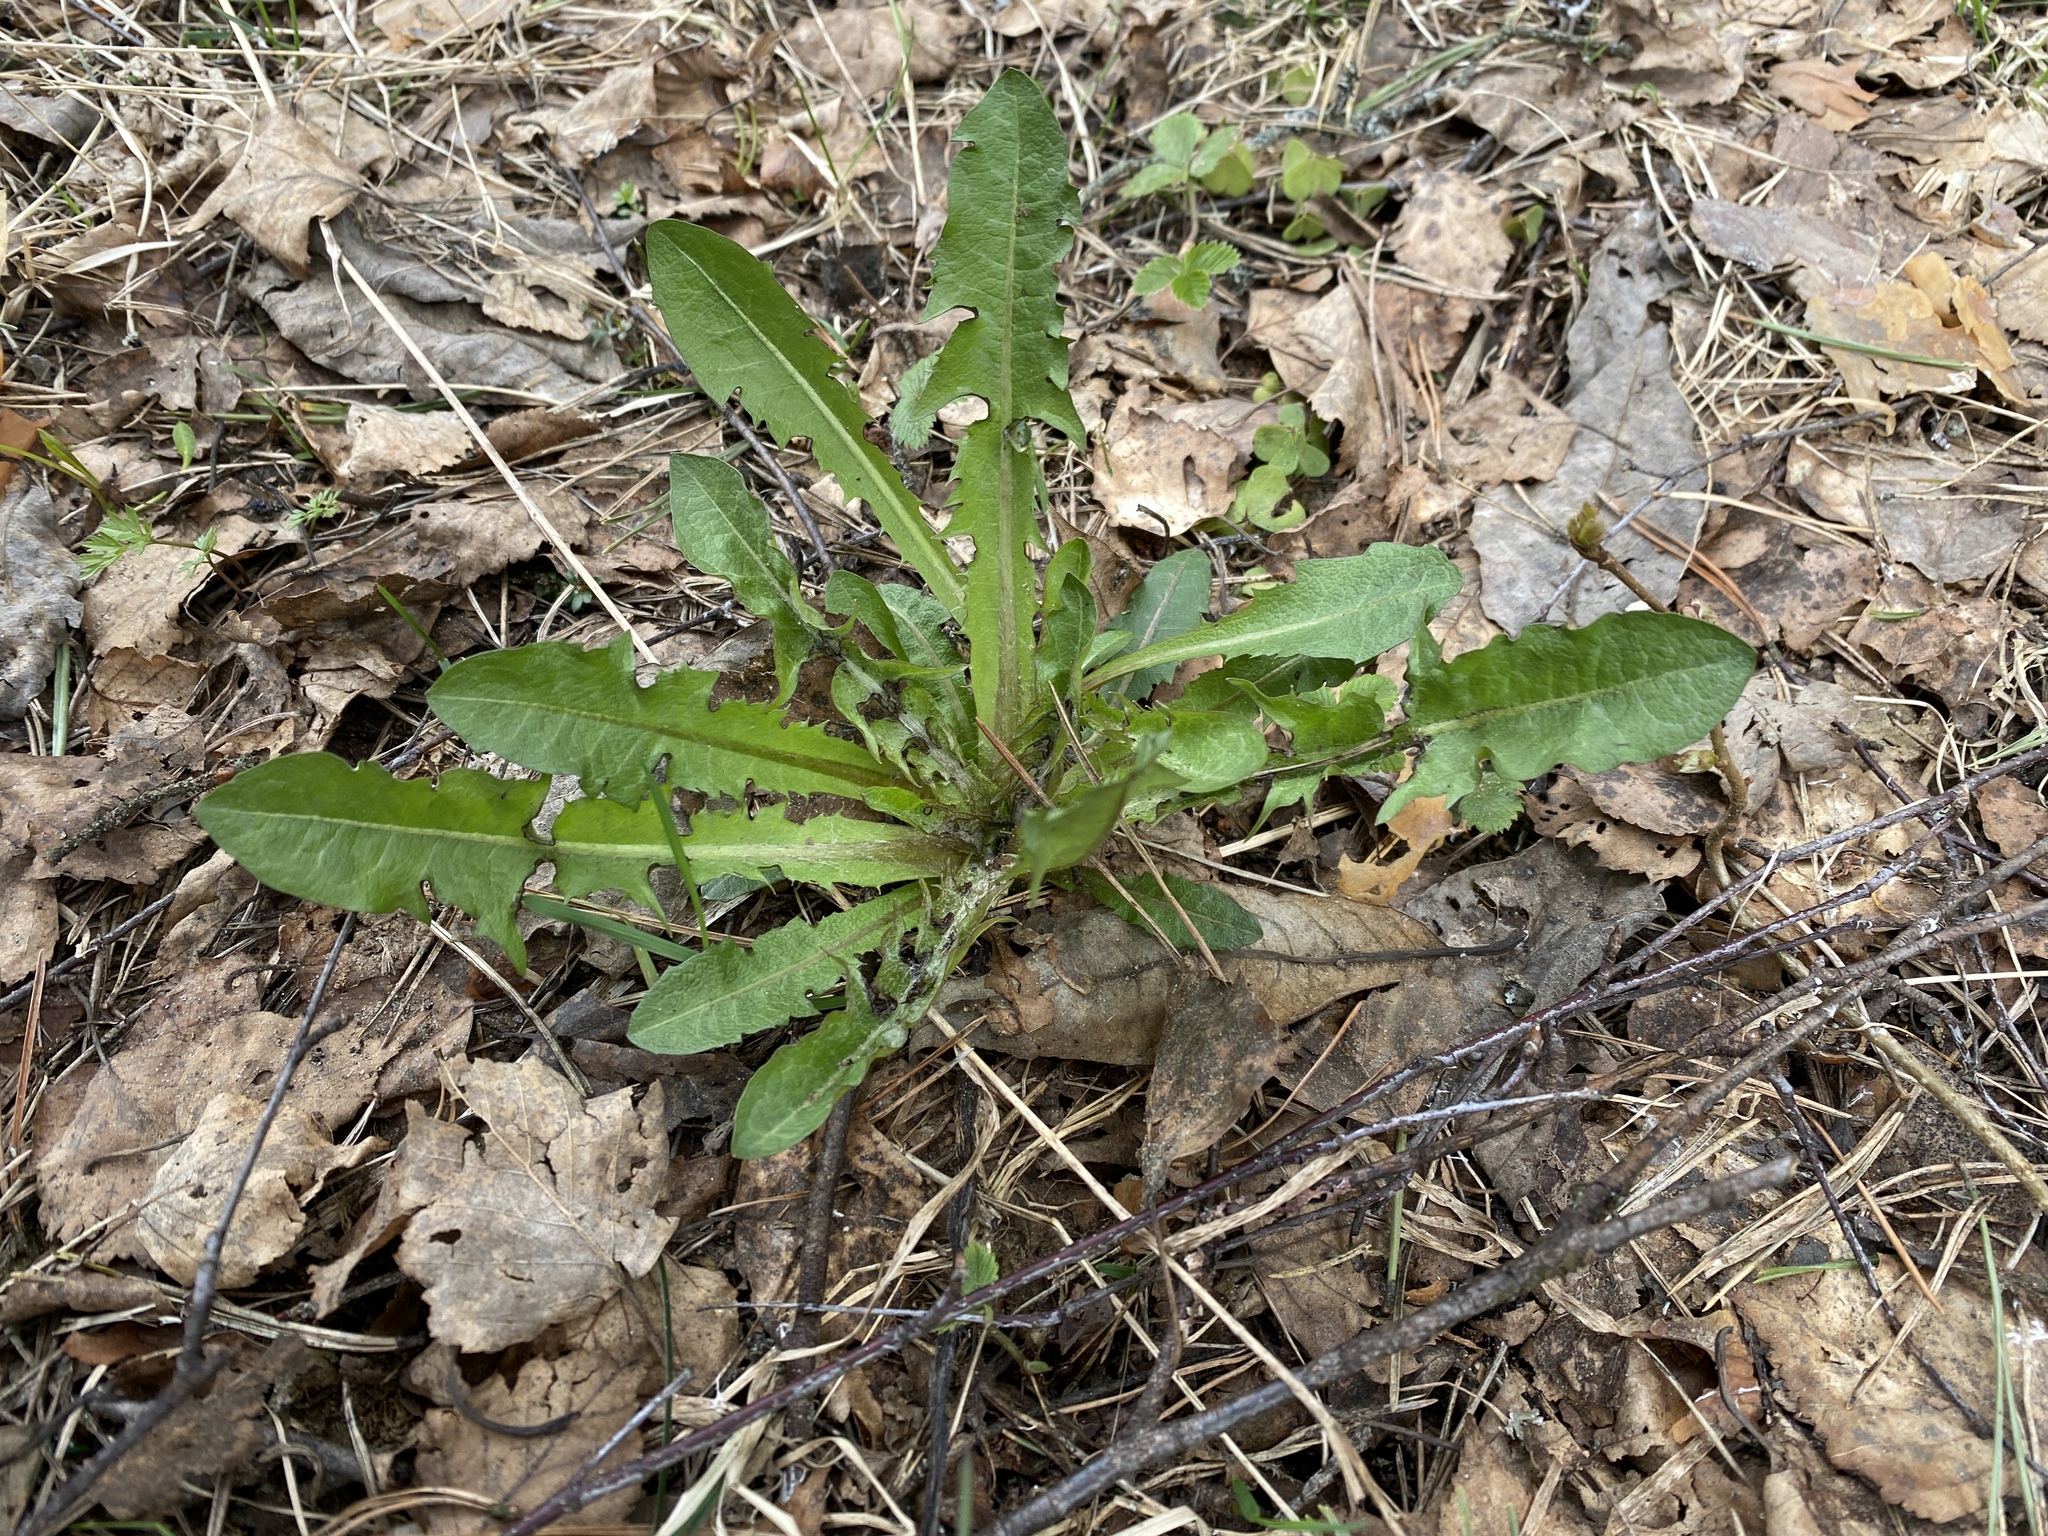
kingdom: Plantae
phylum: Tracheophyta
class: Magnoliopsida
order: Asterales
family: Asteraceae
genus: Taraxacum
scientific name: Taraxacum officinale
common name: Common dandelion
